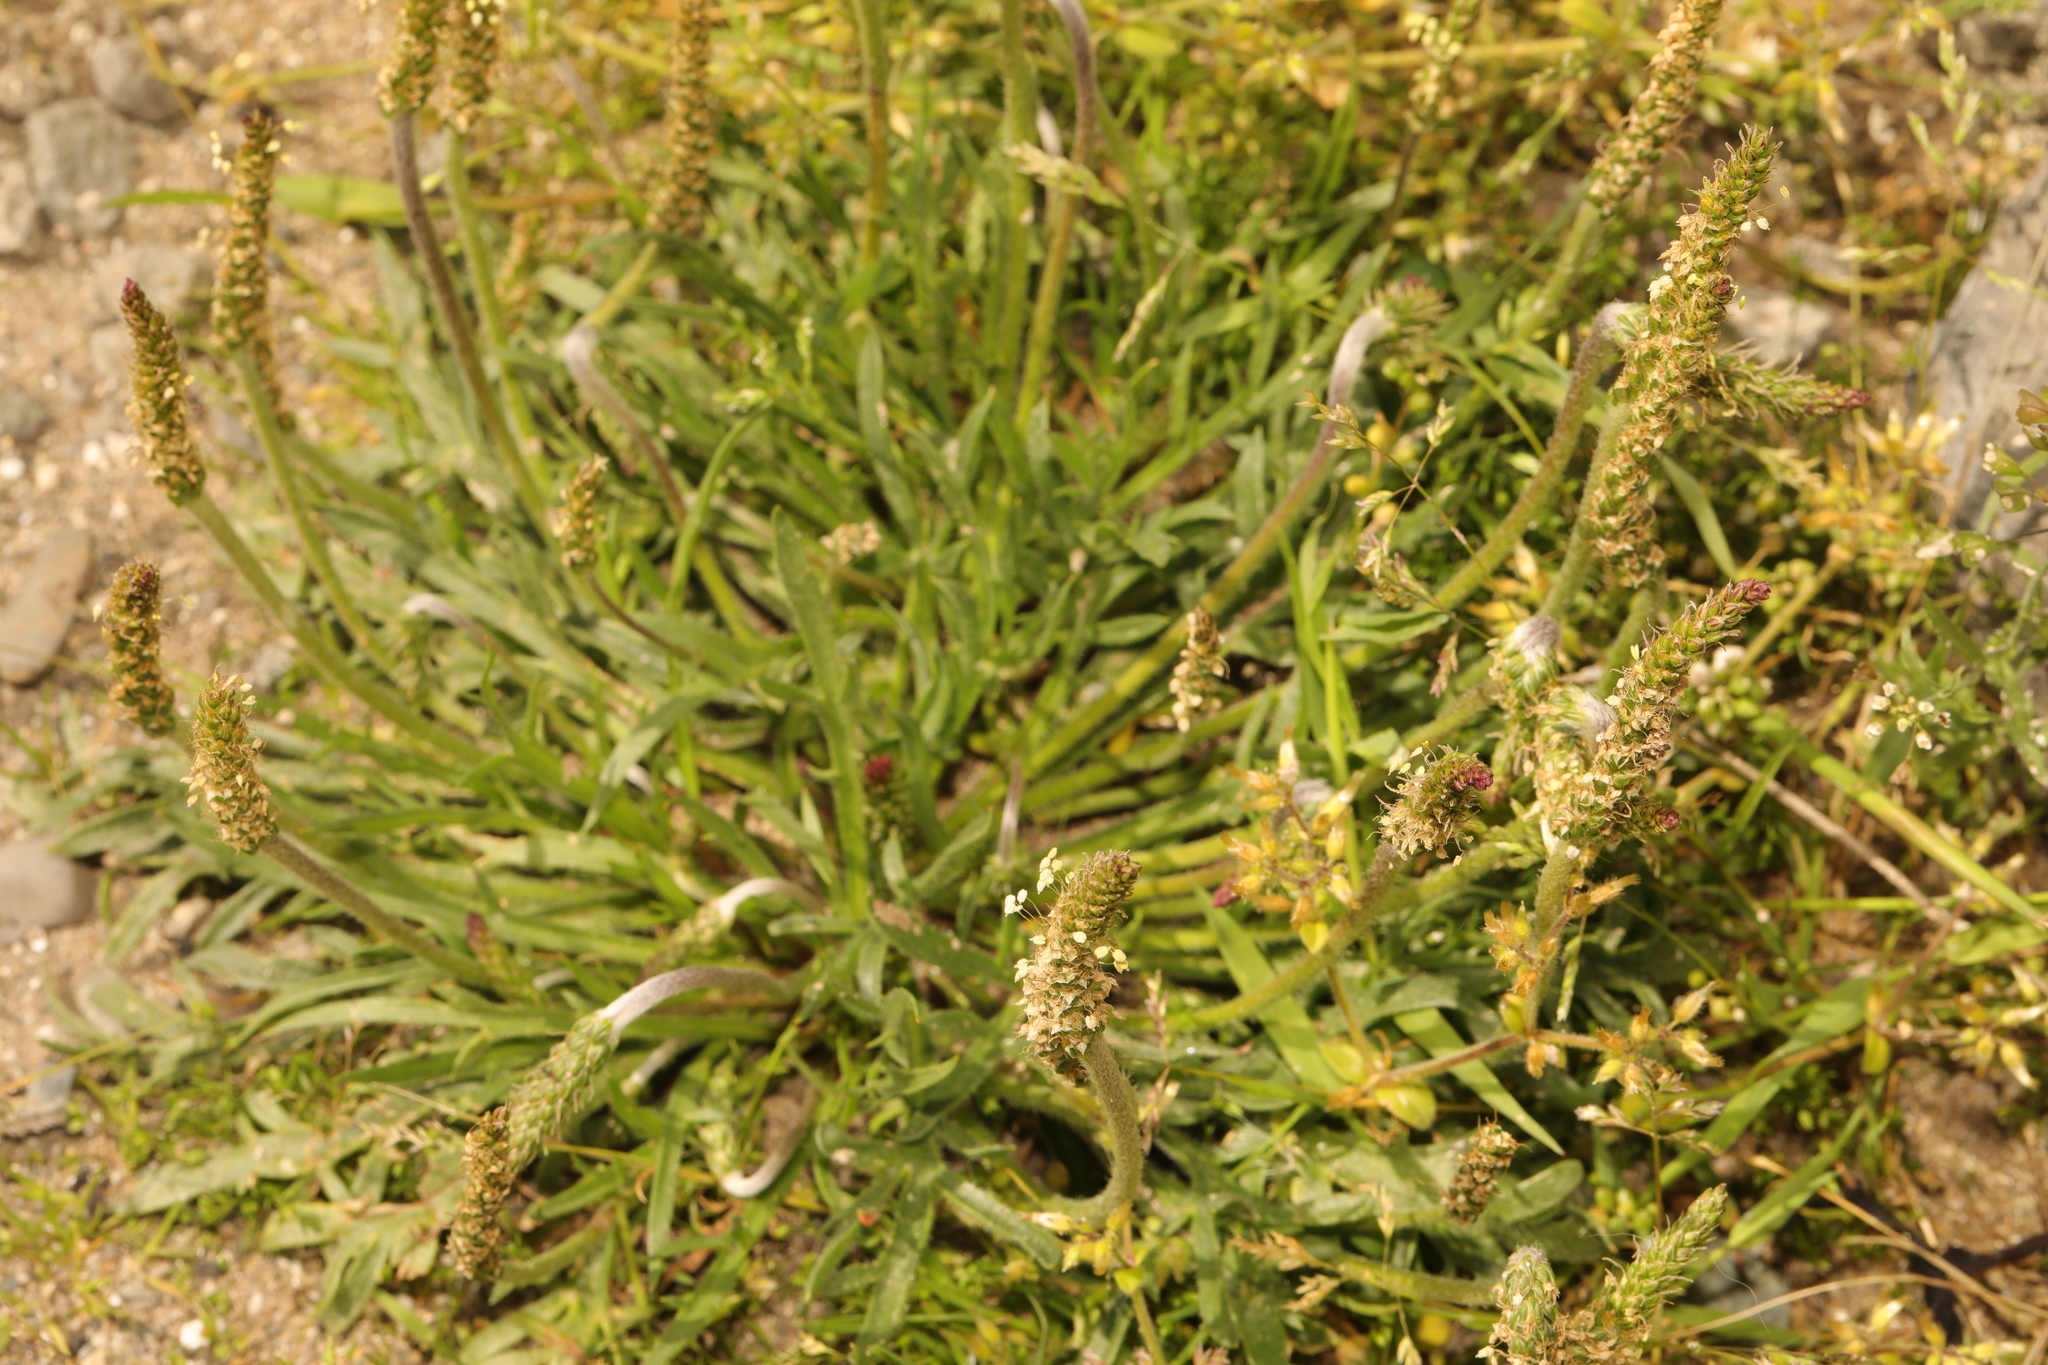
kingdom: Plantae
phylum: Tracheophyta
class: Magnoliopsida
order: Lamiales
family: Plantaginaceae
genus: Plantago
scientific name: Plantago coronopus
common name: Buck's-horn plantain
